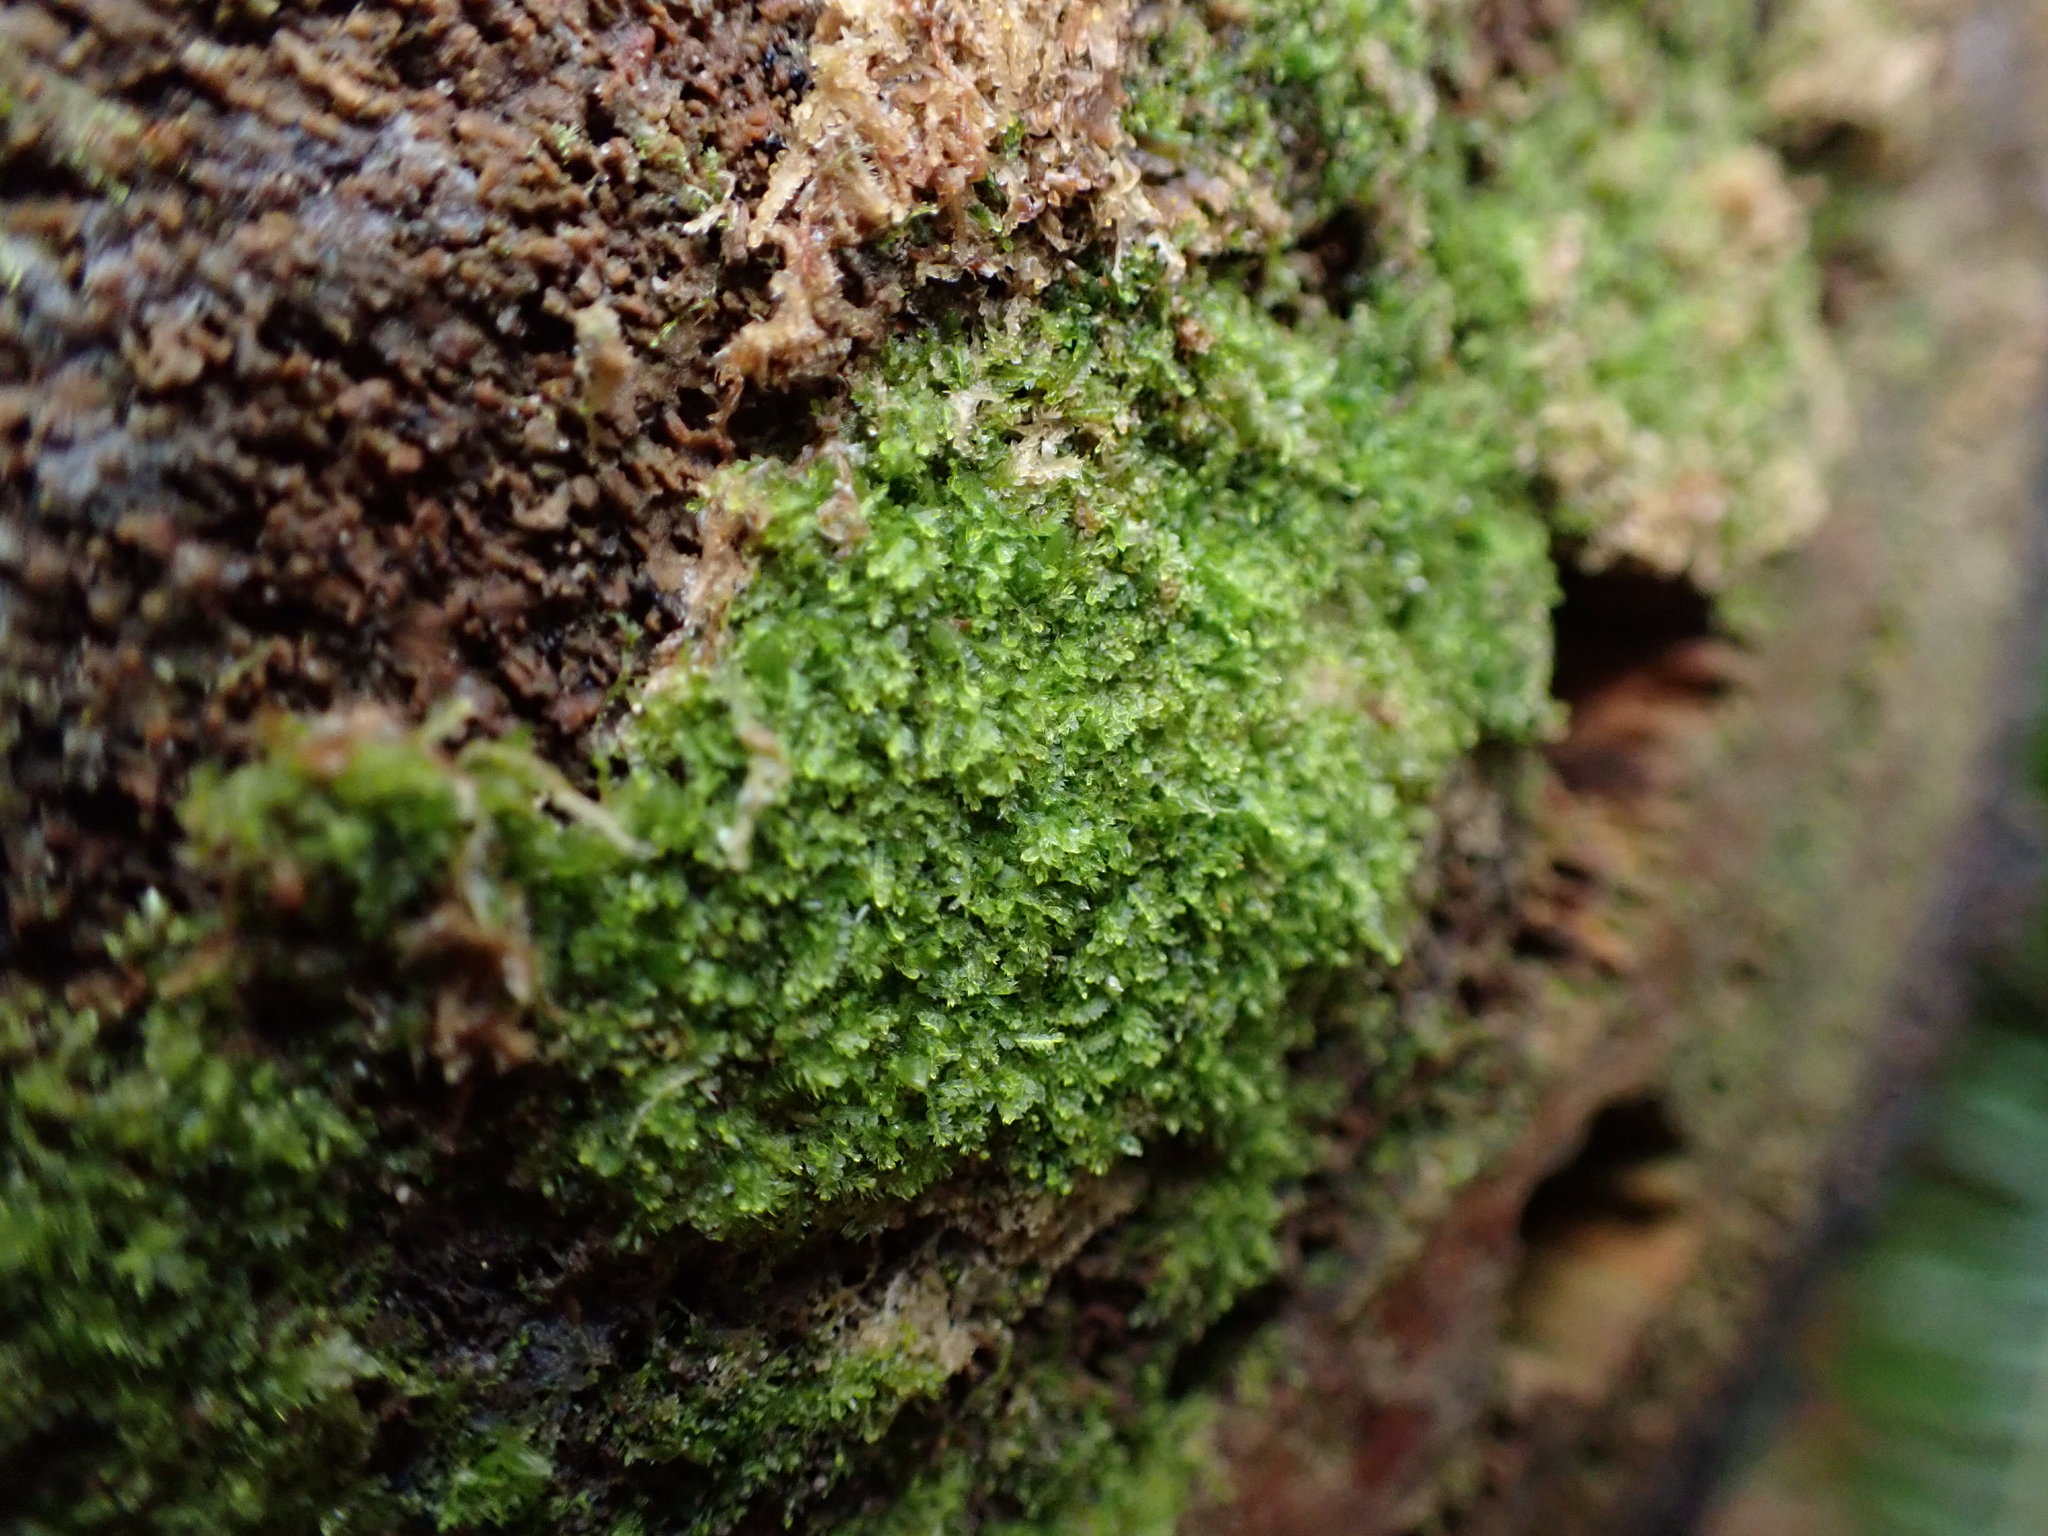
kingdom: Plantae
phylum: Marchantiophyta
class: Jungermanniopsida
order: Jungermanniales
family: Cephaloziaceae
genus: Cephalozia
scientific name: Cephalozia bicuspidata
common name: Two-horned pincerwort
